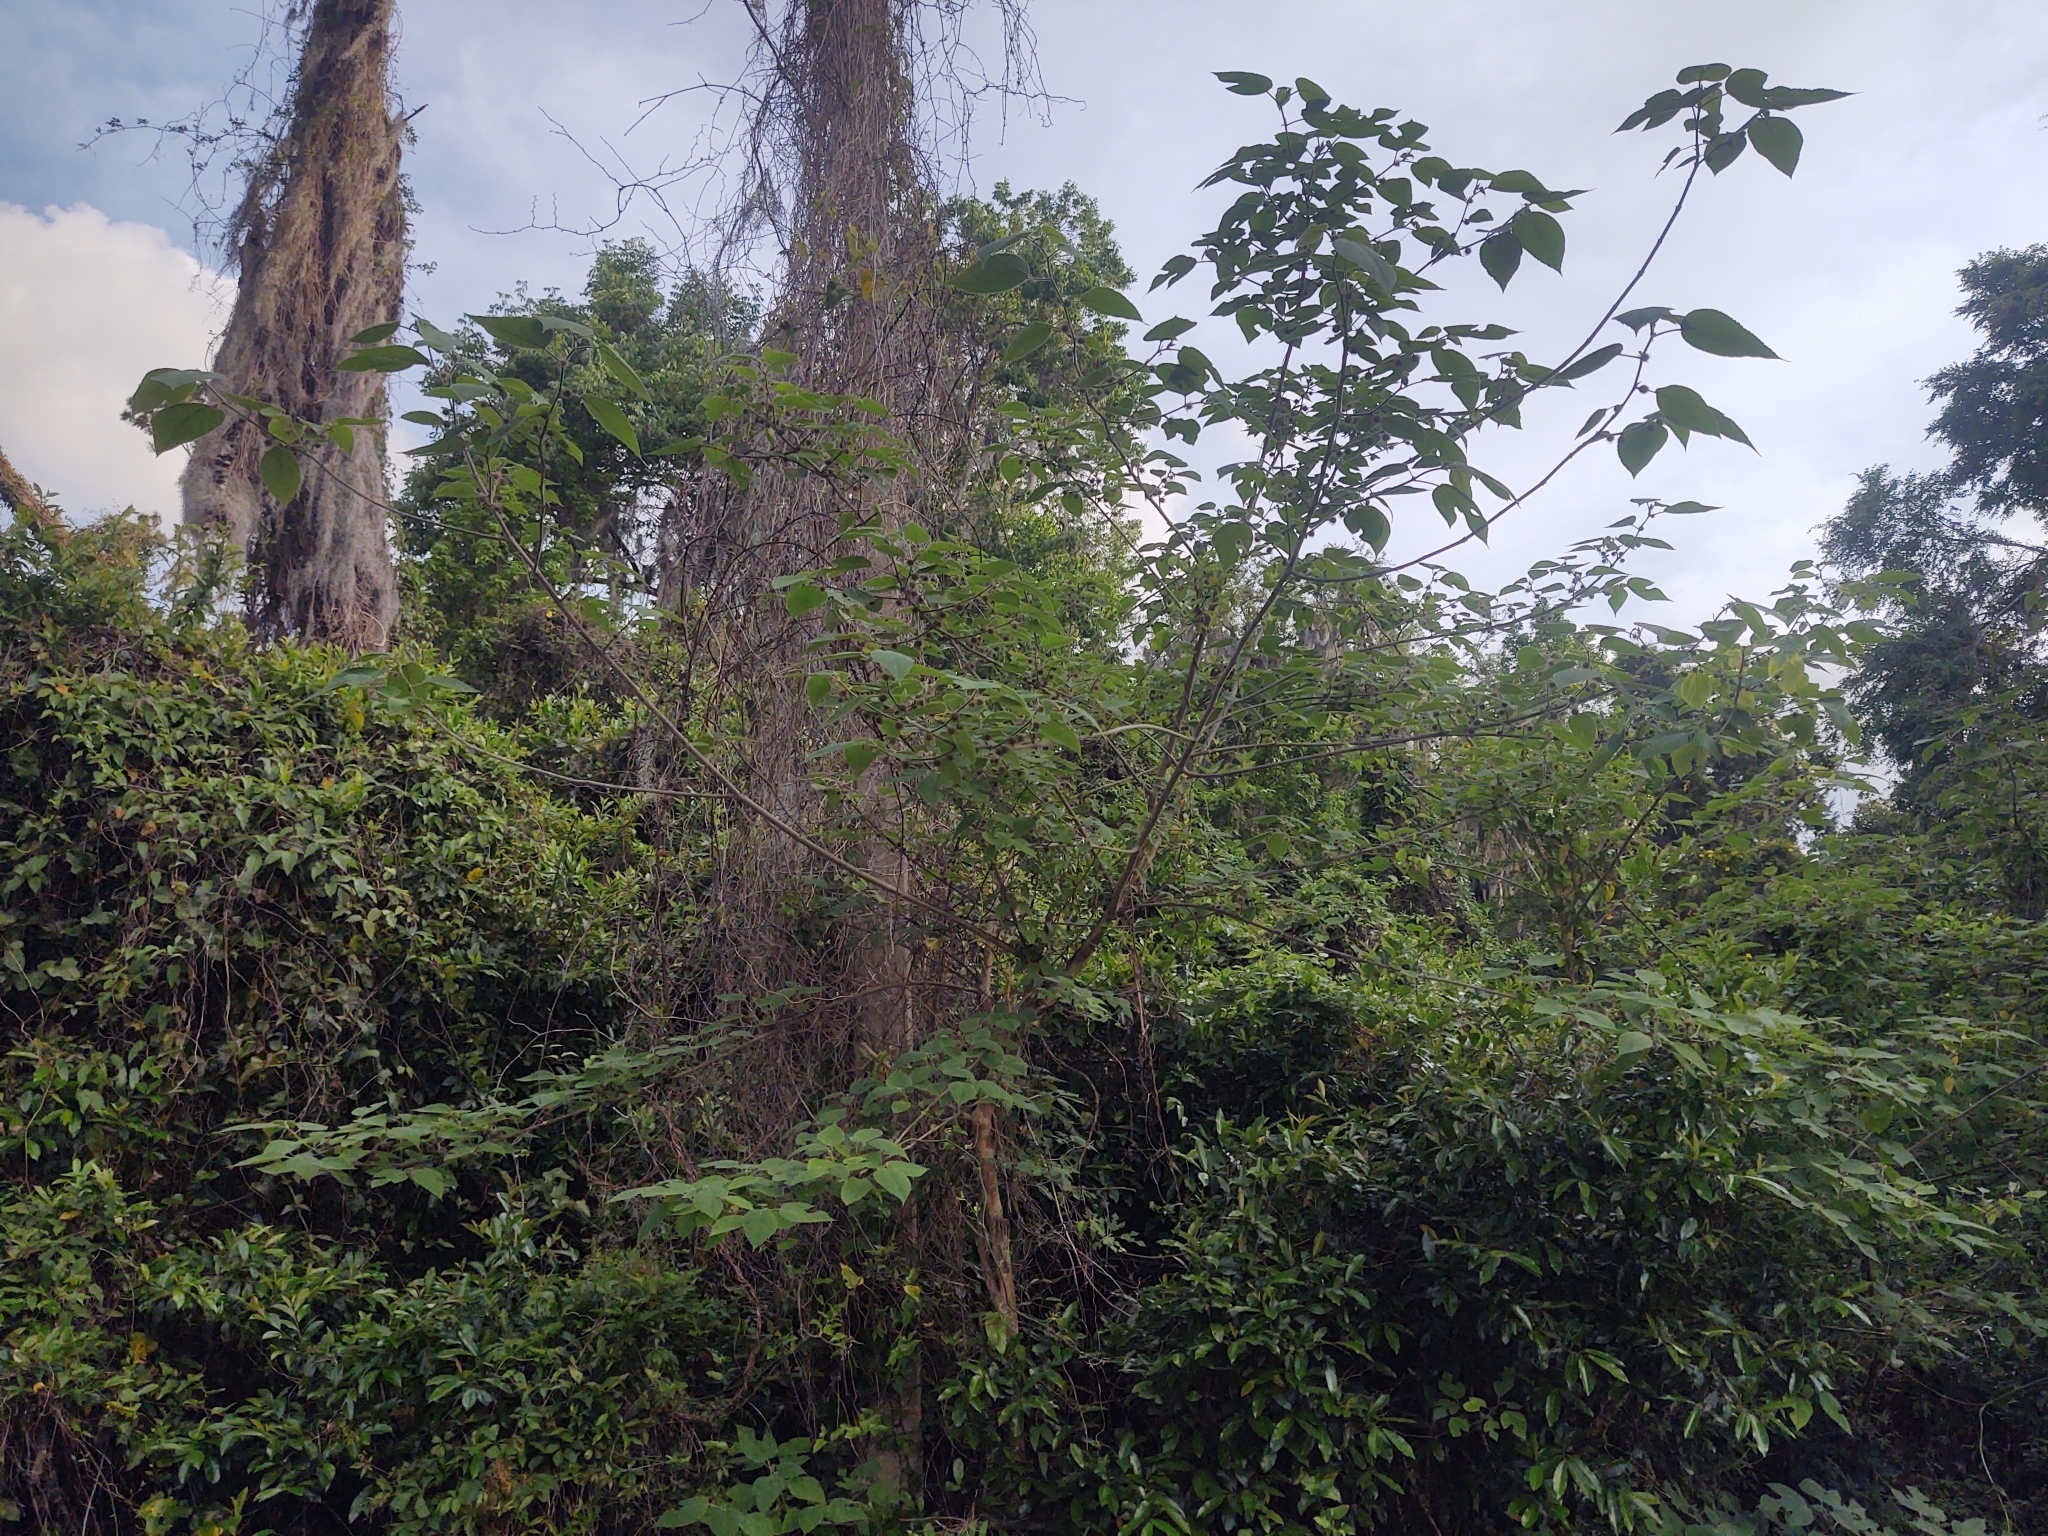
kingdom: Plantae
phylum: Tracheophyta
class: Magnoliopsida
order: Rosales
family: Moraceae
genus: Broussonetia
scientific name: Broussonetia papyrifera
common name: Paper mulberry
